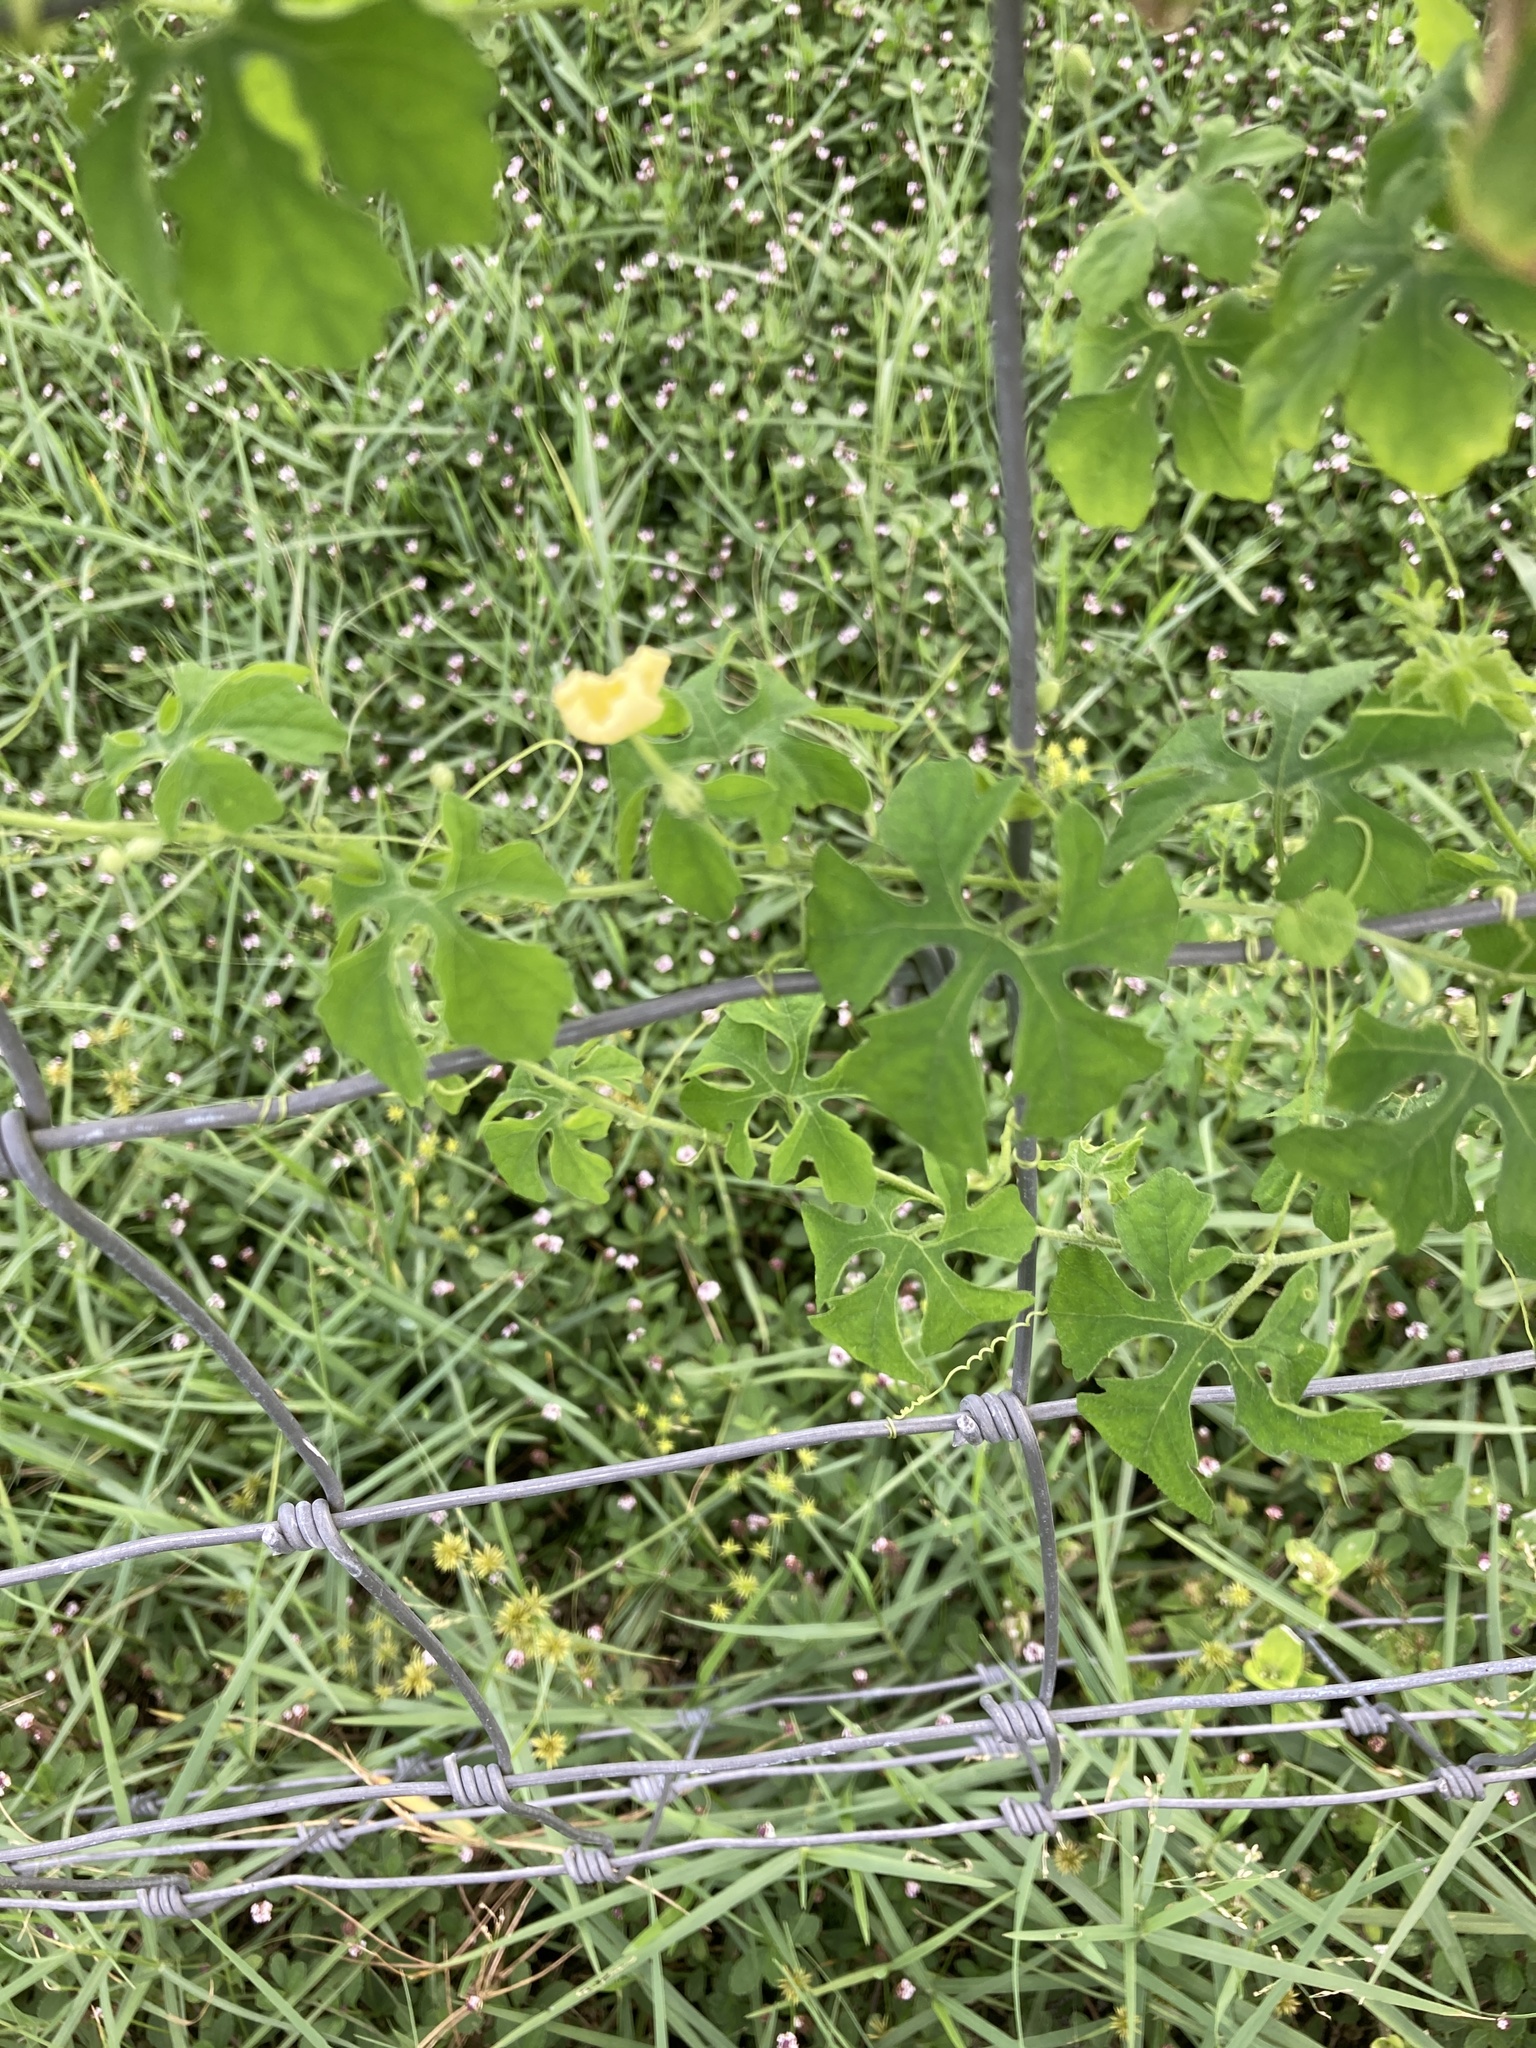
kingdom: Plantae
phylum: Tracheophyta
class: Magnoliopsida
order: Cucurbitales
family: Cucurbitaceae
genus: Momordica
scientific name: Momordica charantia
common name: Balsampear
